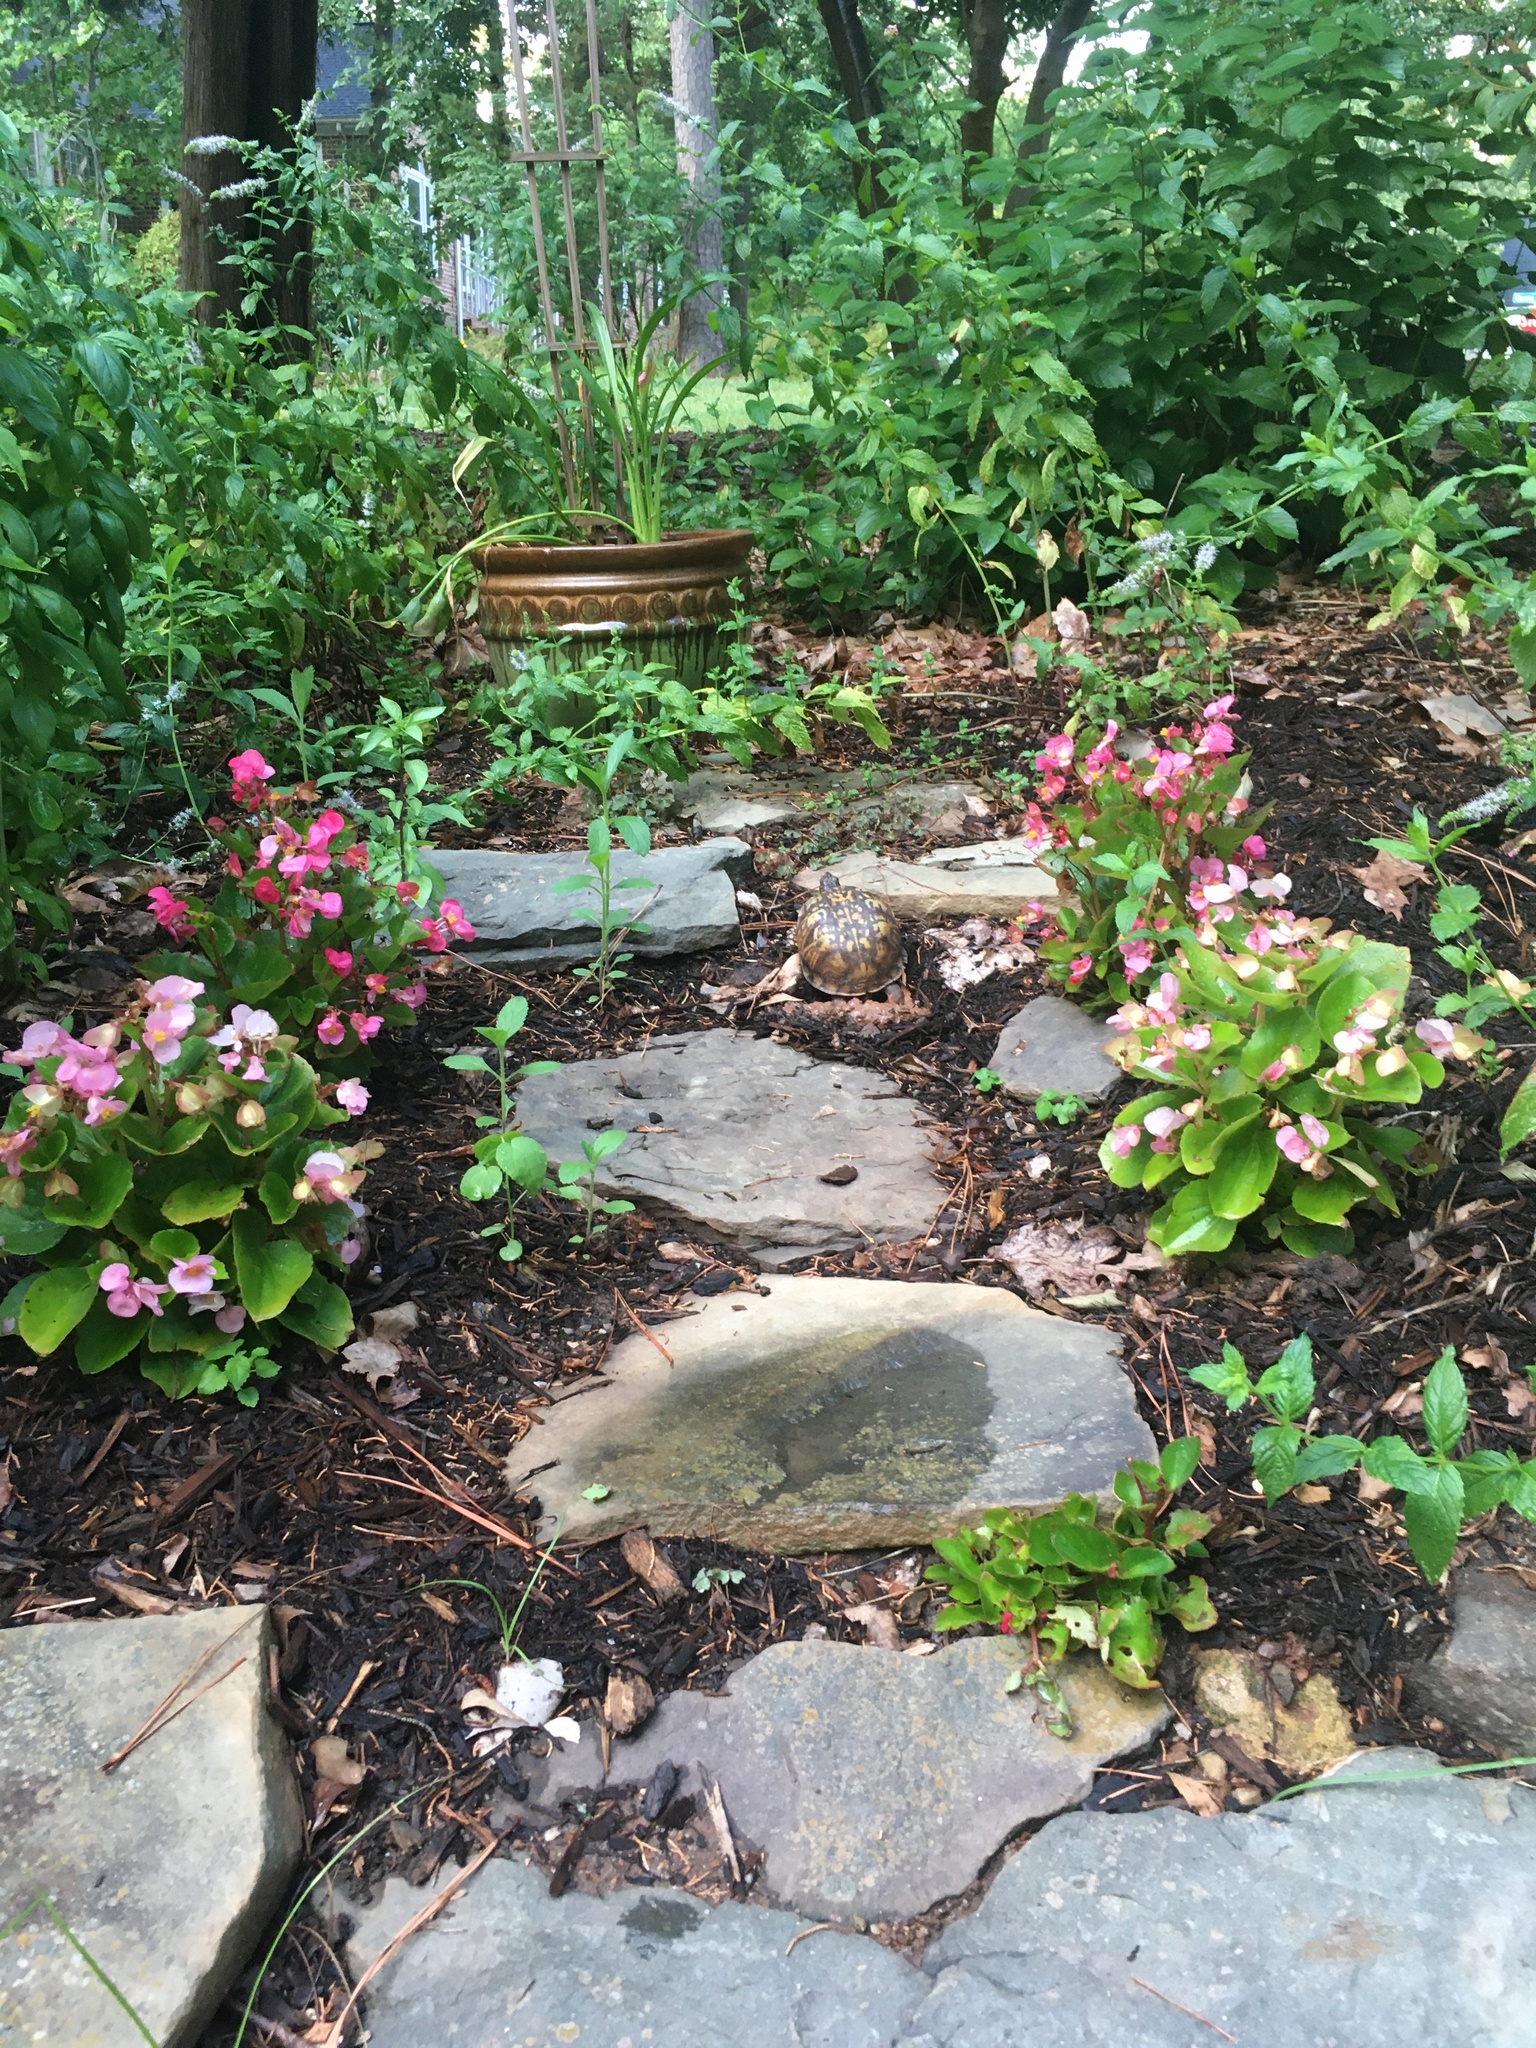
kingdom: Animalia
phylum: Chordata
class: Testudines
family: Emydidae
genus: Terrapene
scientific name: Terrapene carolina
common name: Common box turtle
